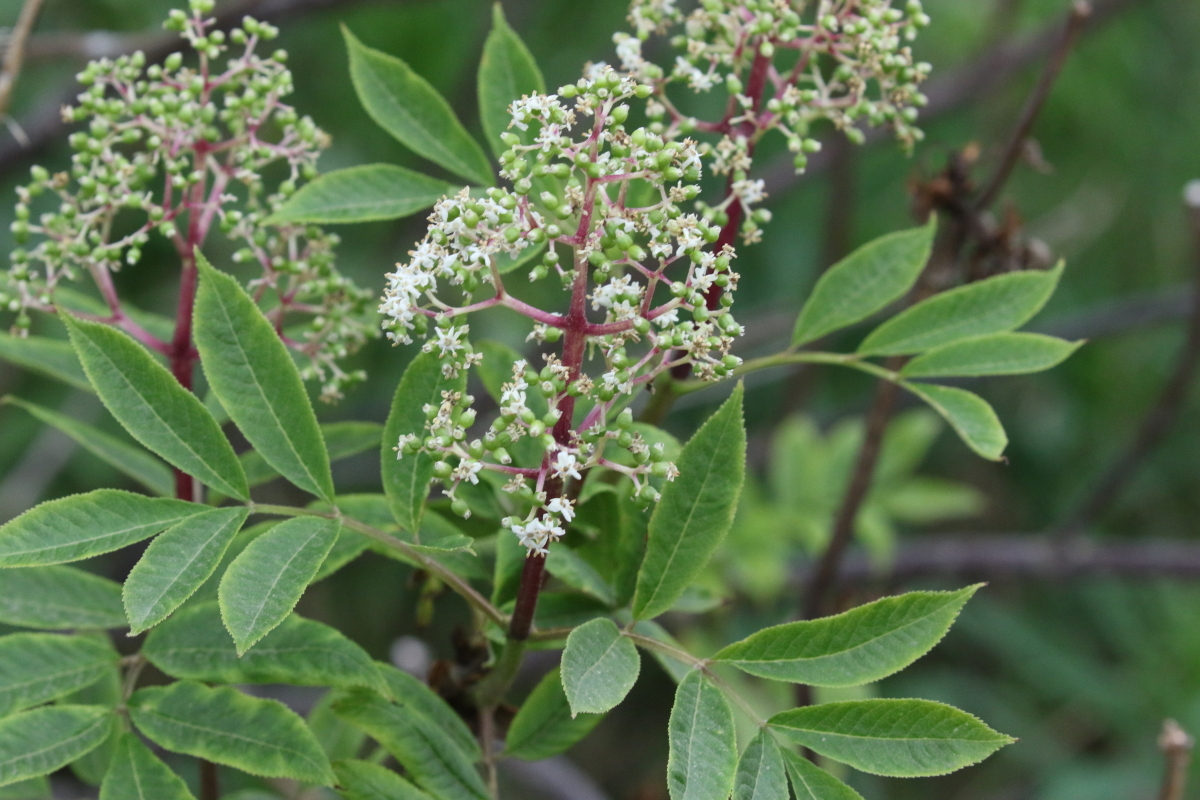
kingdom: Plantae
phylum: Tracheophyta
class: Magnoliopsida
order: Dipsacales
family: Viburnaceae
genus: Sambucus
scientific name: Sambucus racemosa
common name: Red-berried elder
